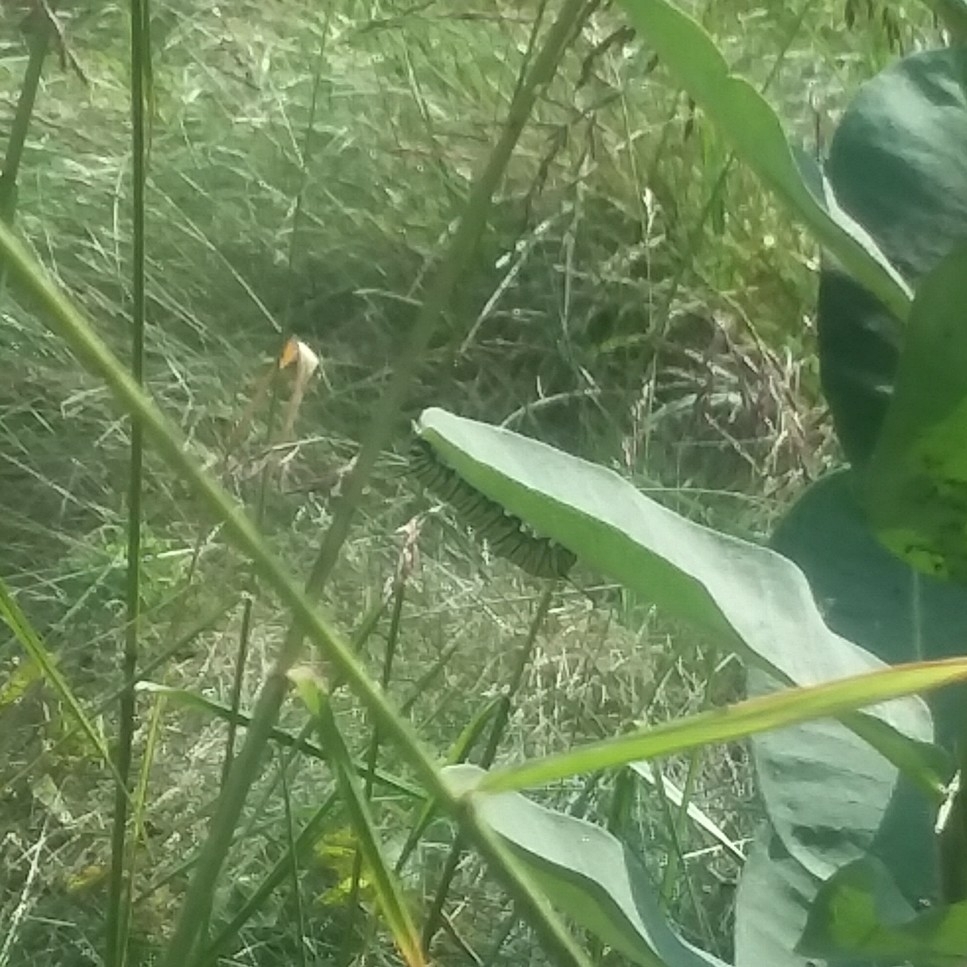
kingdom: Animalia
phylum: Arthropoda
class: Insecta
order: Lepidoptera
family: Nymphalidae
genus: Danaus
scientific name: Danaus plexippus
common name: Monarch
